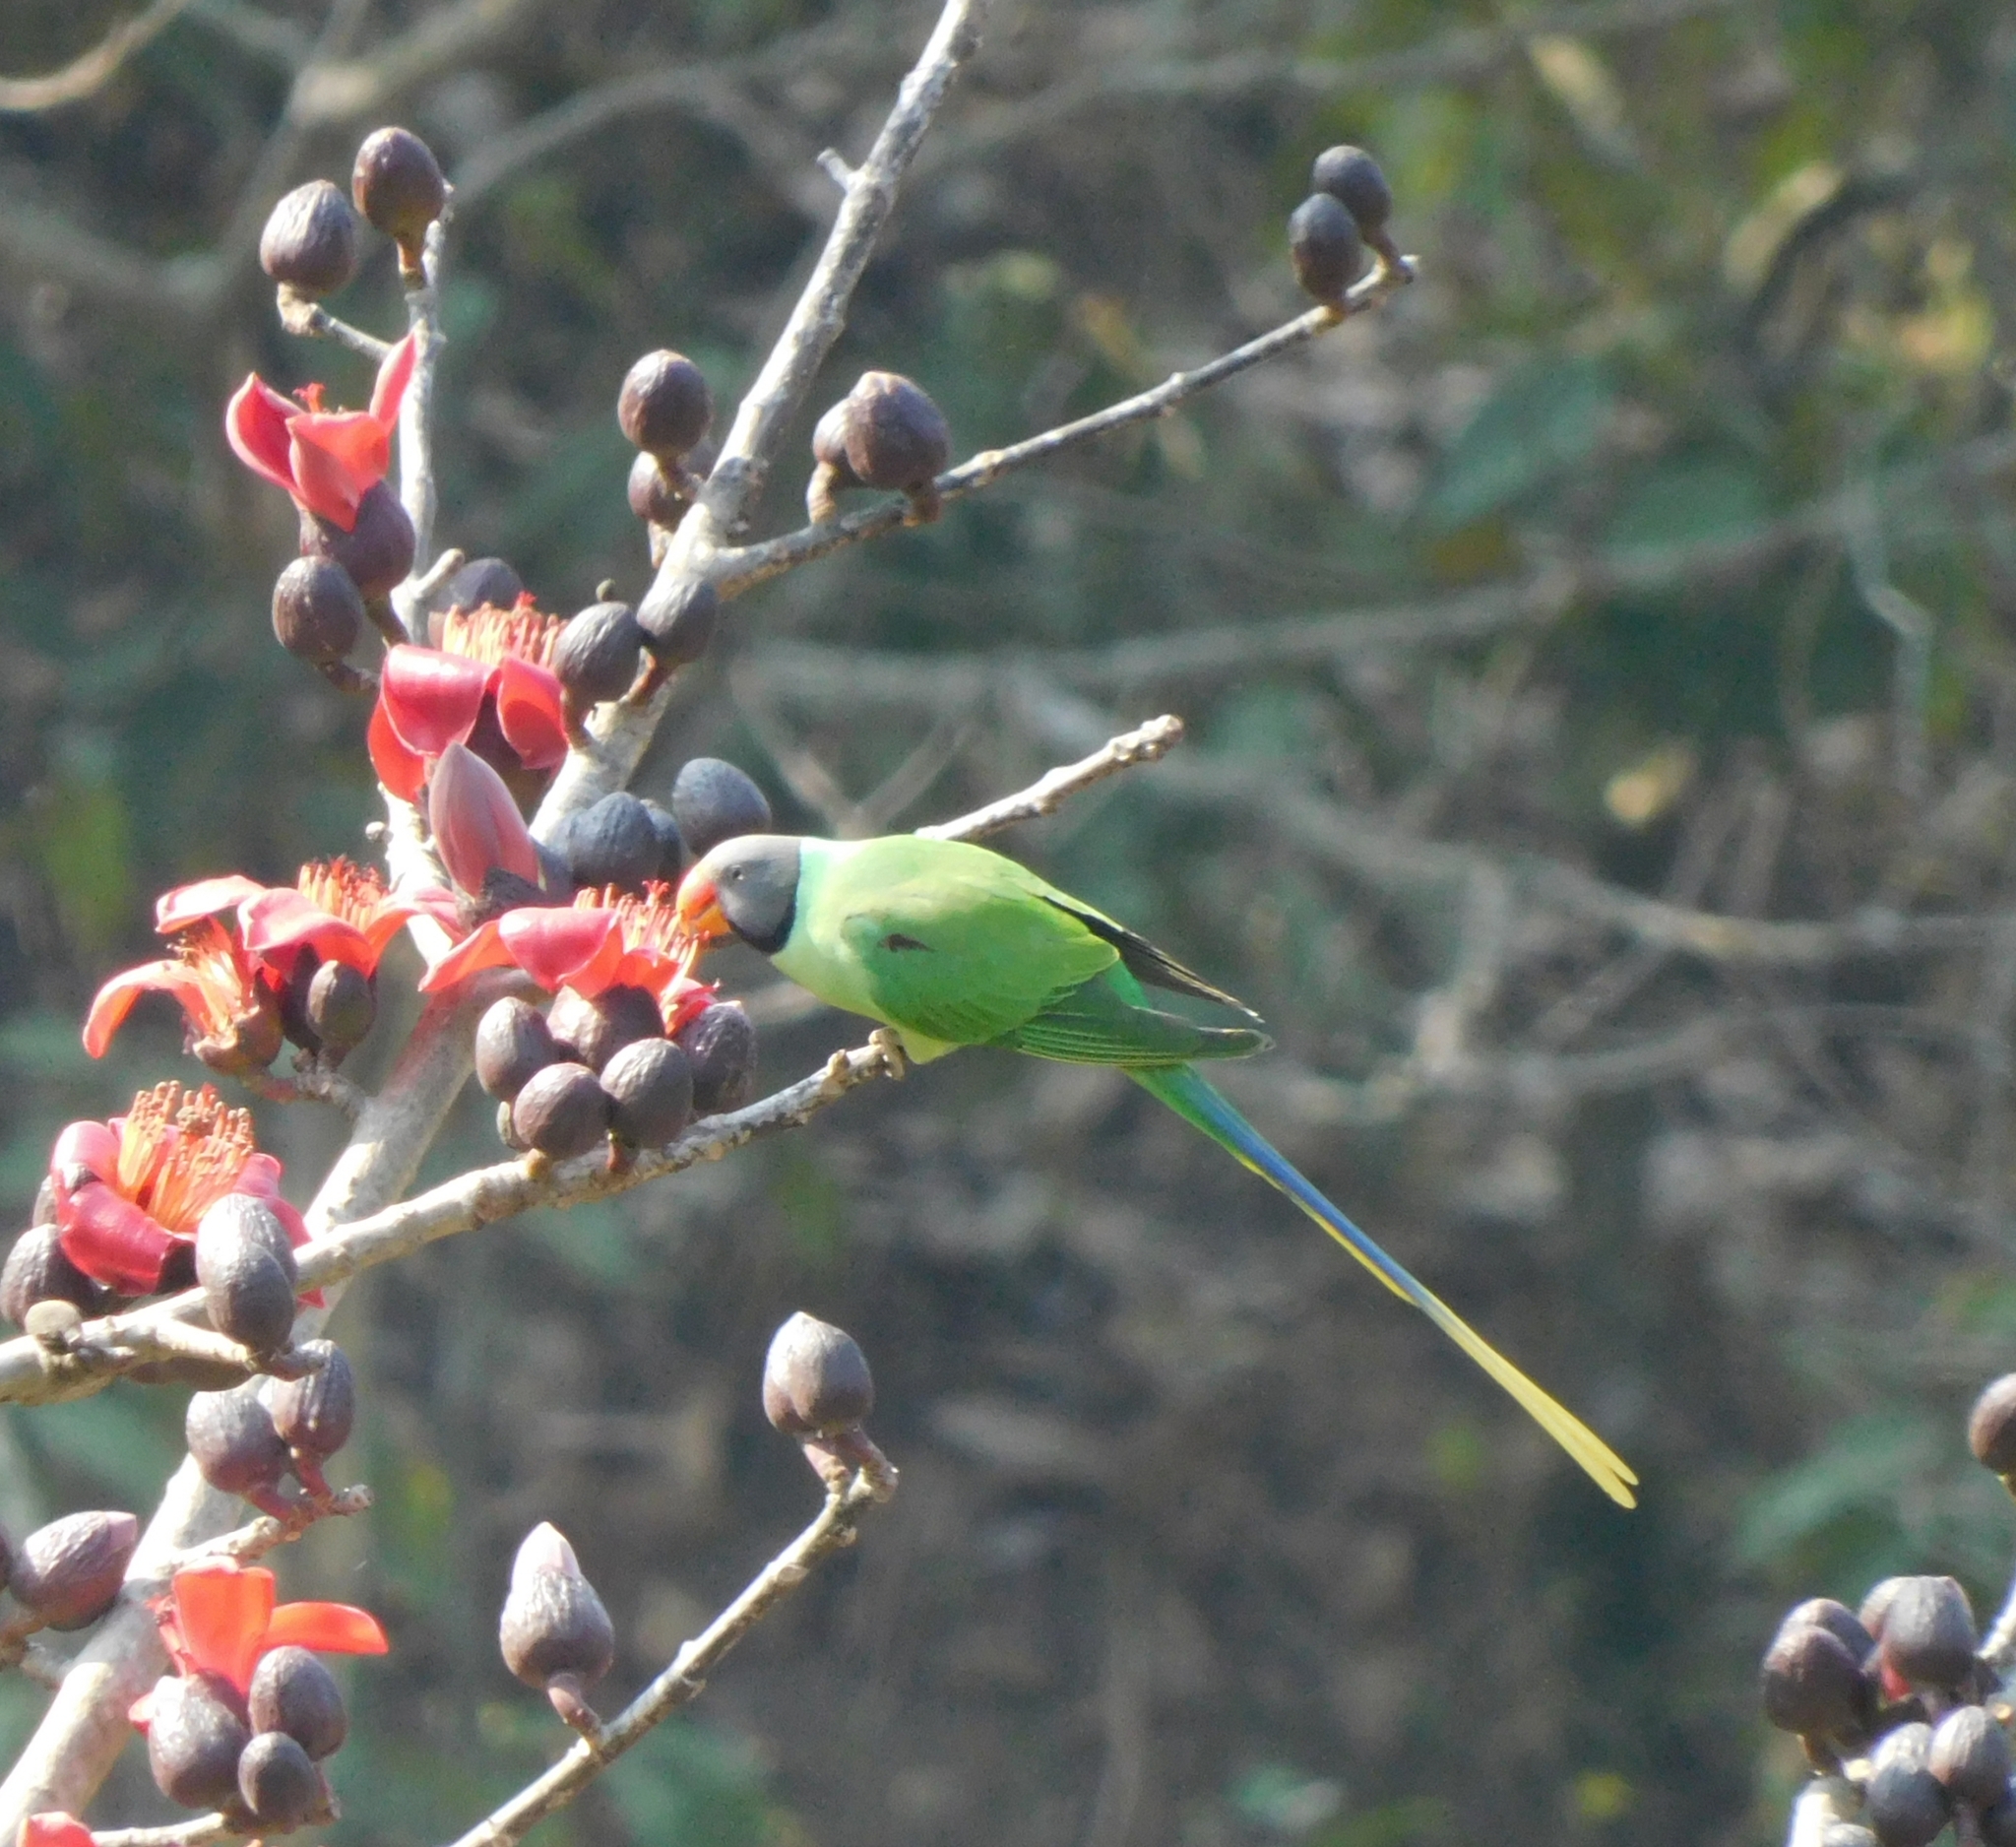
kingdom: Animalia
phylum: Chordata
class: Aves
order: Psittaciformes
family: Psittacidae
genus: Psittacula
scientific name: Psittacula himalayana
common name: Slaty-headed parakeet
